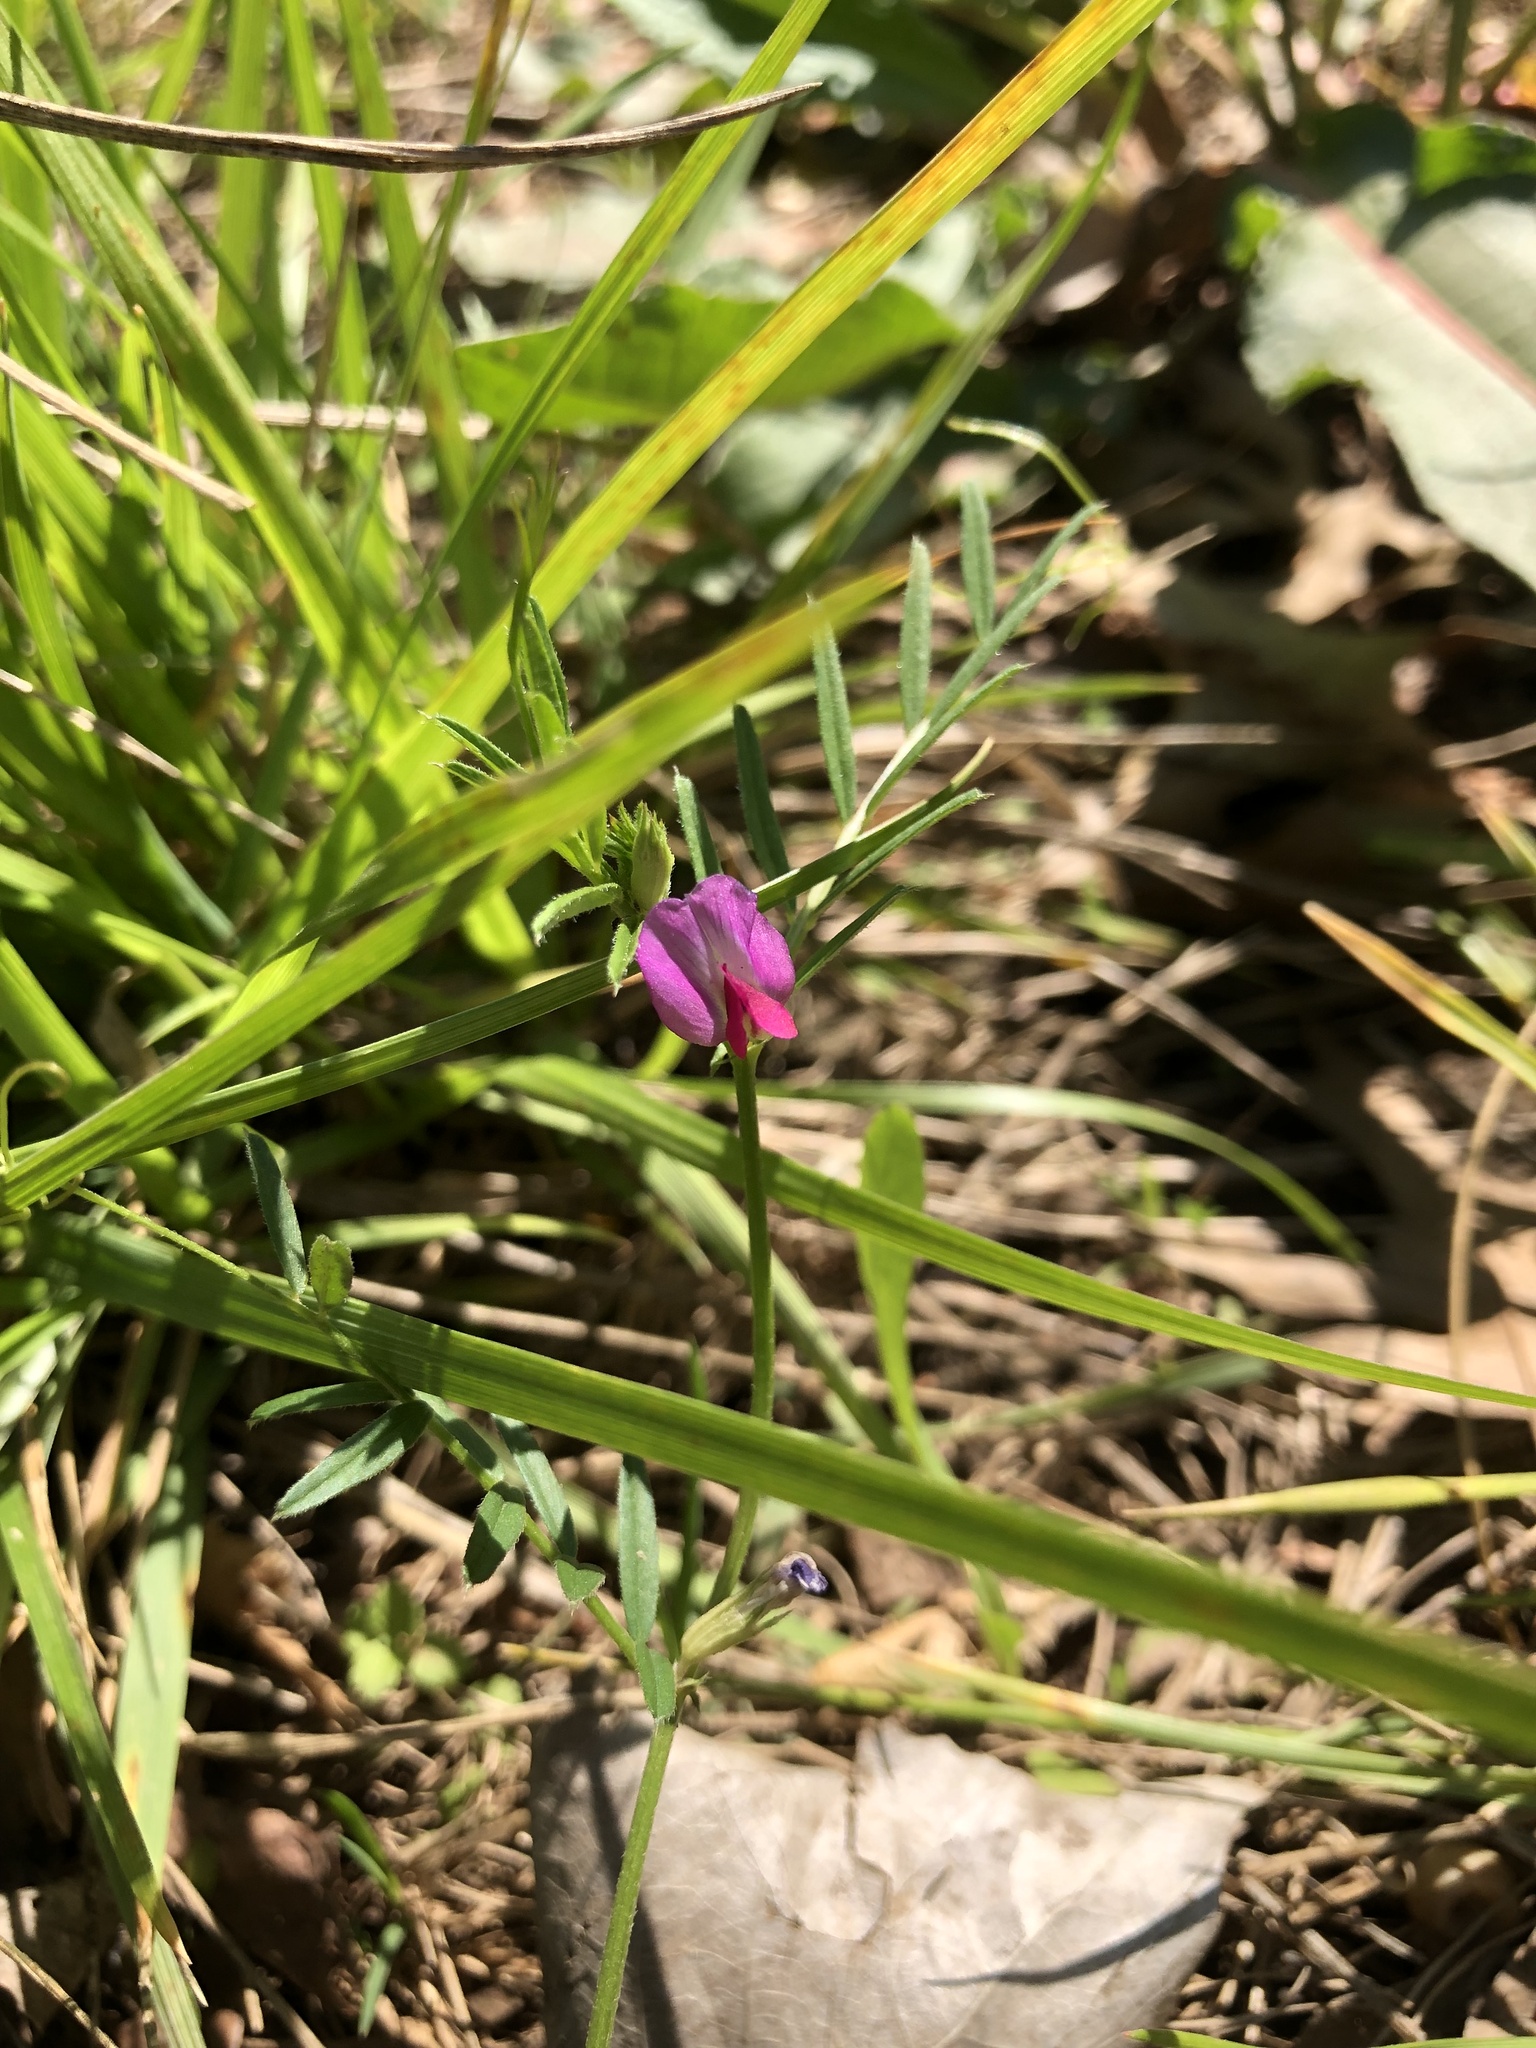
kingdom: Plantae
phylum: Tracheophyta
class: Magnoliopsida
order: Fabales
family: Fabaceae
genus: Vicia
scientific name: Vicia sativa
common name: Garden vetch
